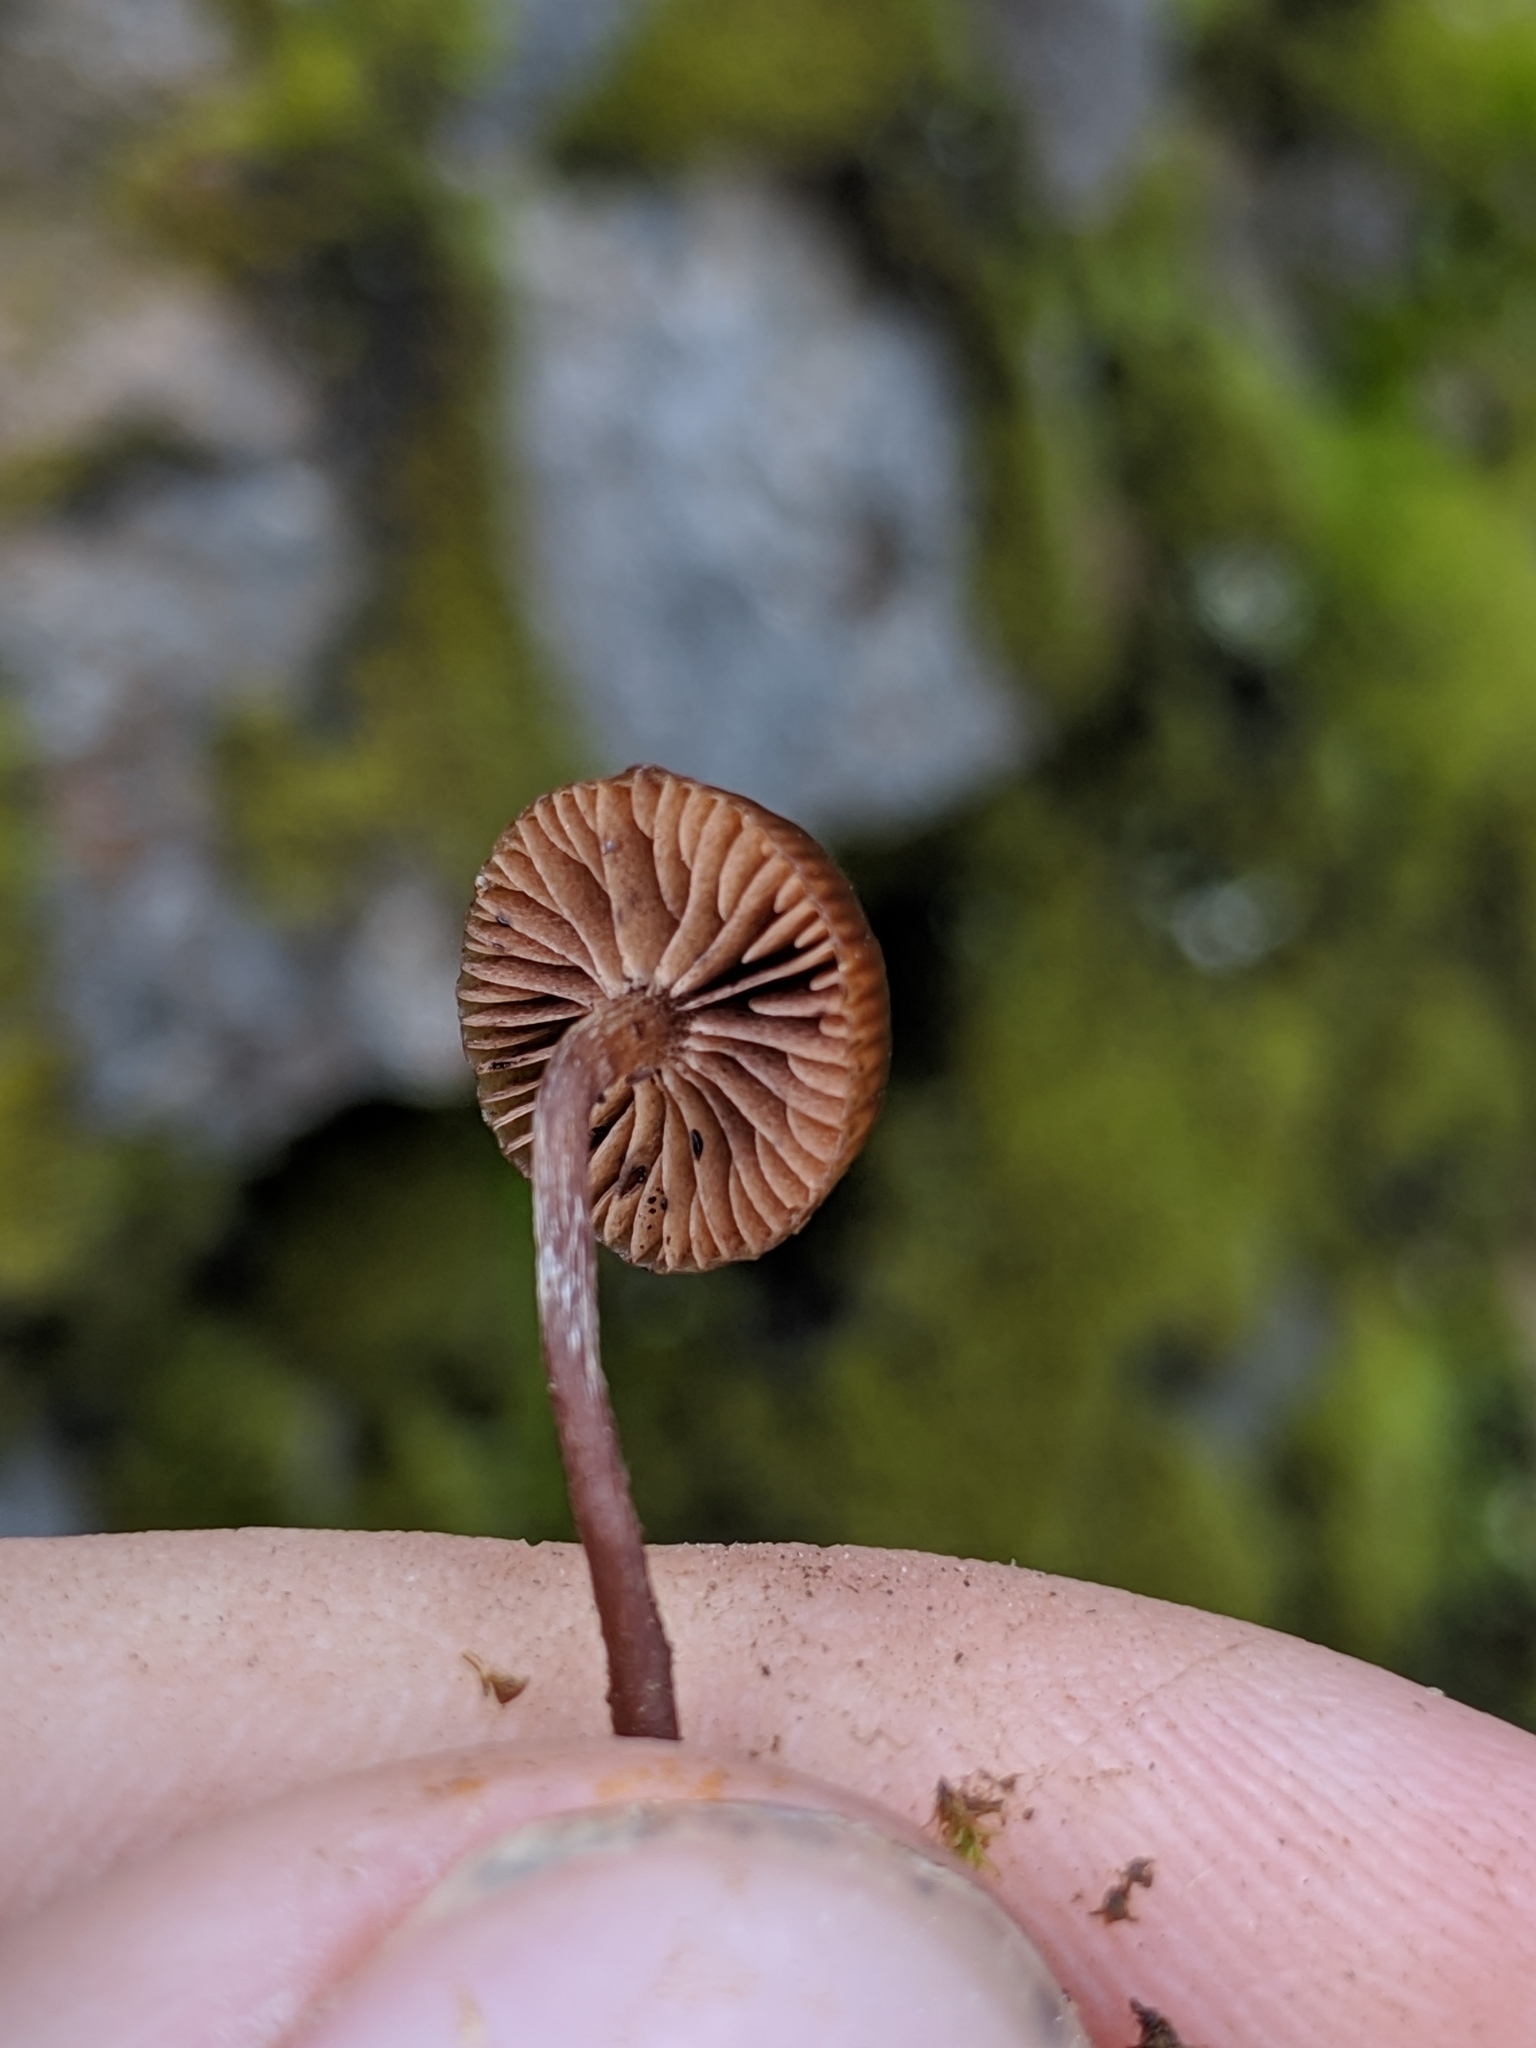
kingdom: Fungi
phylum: Basidiomycota
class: Agaricomycetes
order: Agaricales
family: Strophariaceae
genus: Deconica
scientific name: Deconica montana
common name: Mountain moss deconica
